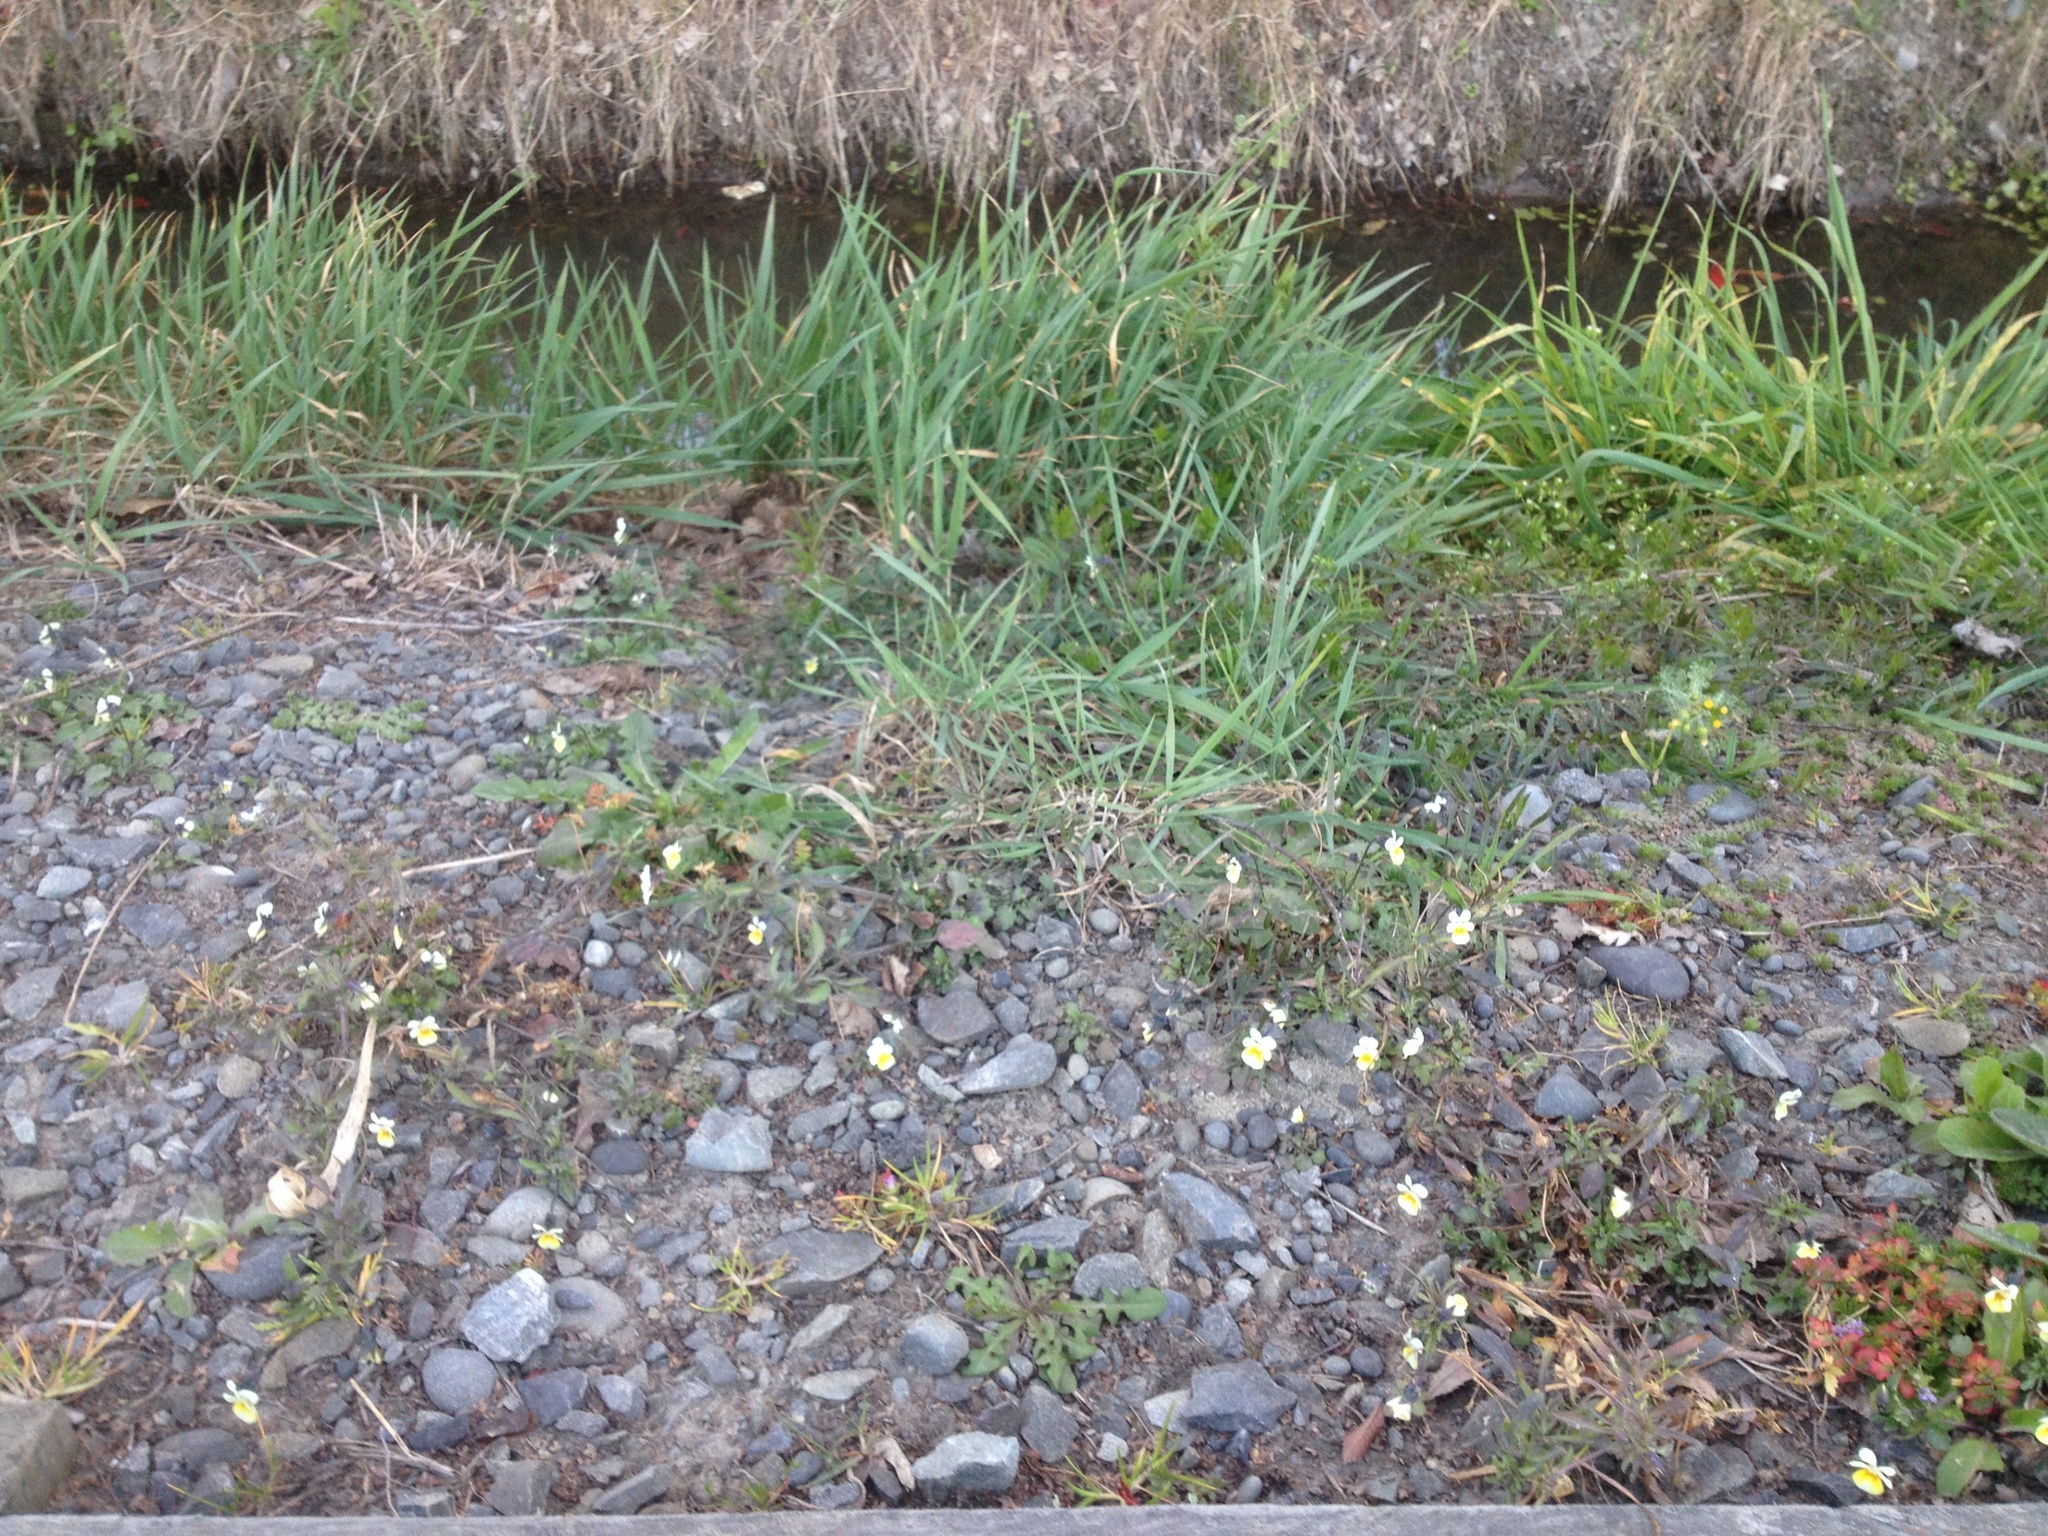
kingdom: Plantae
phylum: Tracheophyta
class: Magnoliopsida
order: Malpighiales
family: Violaceae
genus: Viola
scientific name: Viola arvensis
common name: Field pansy
